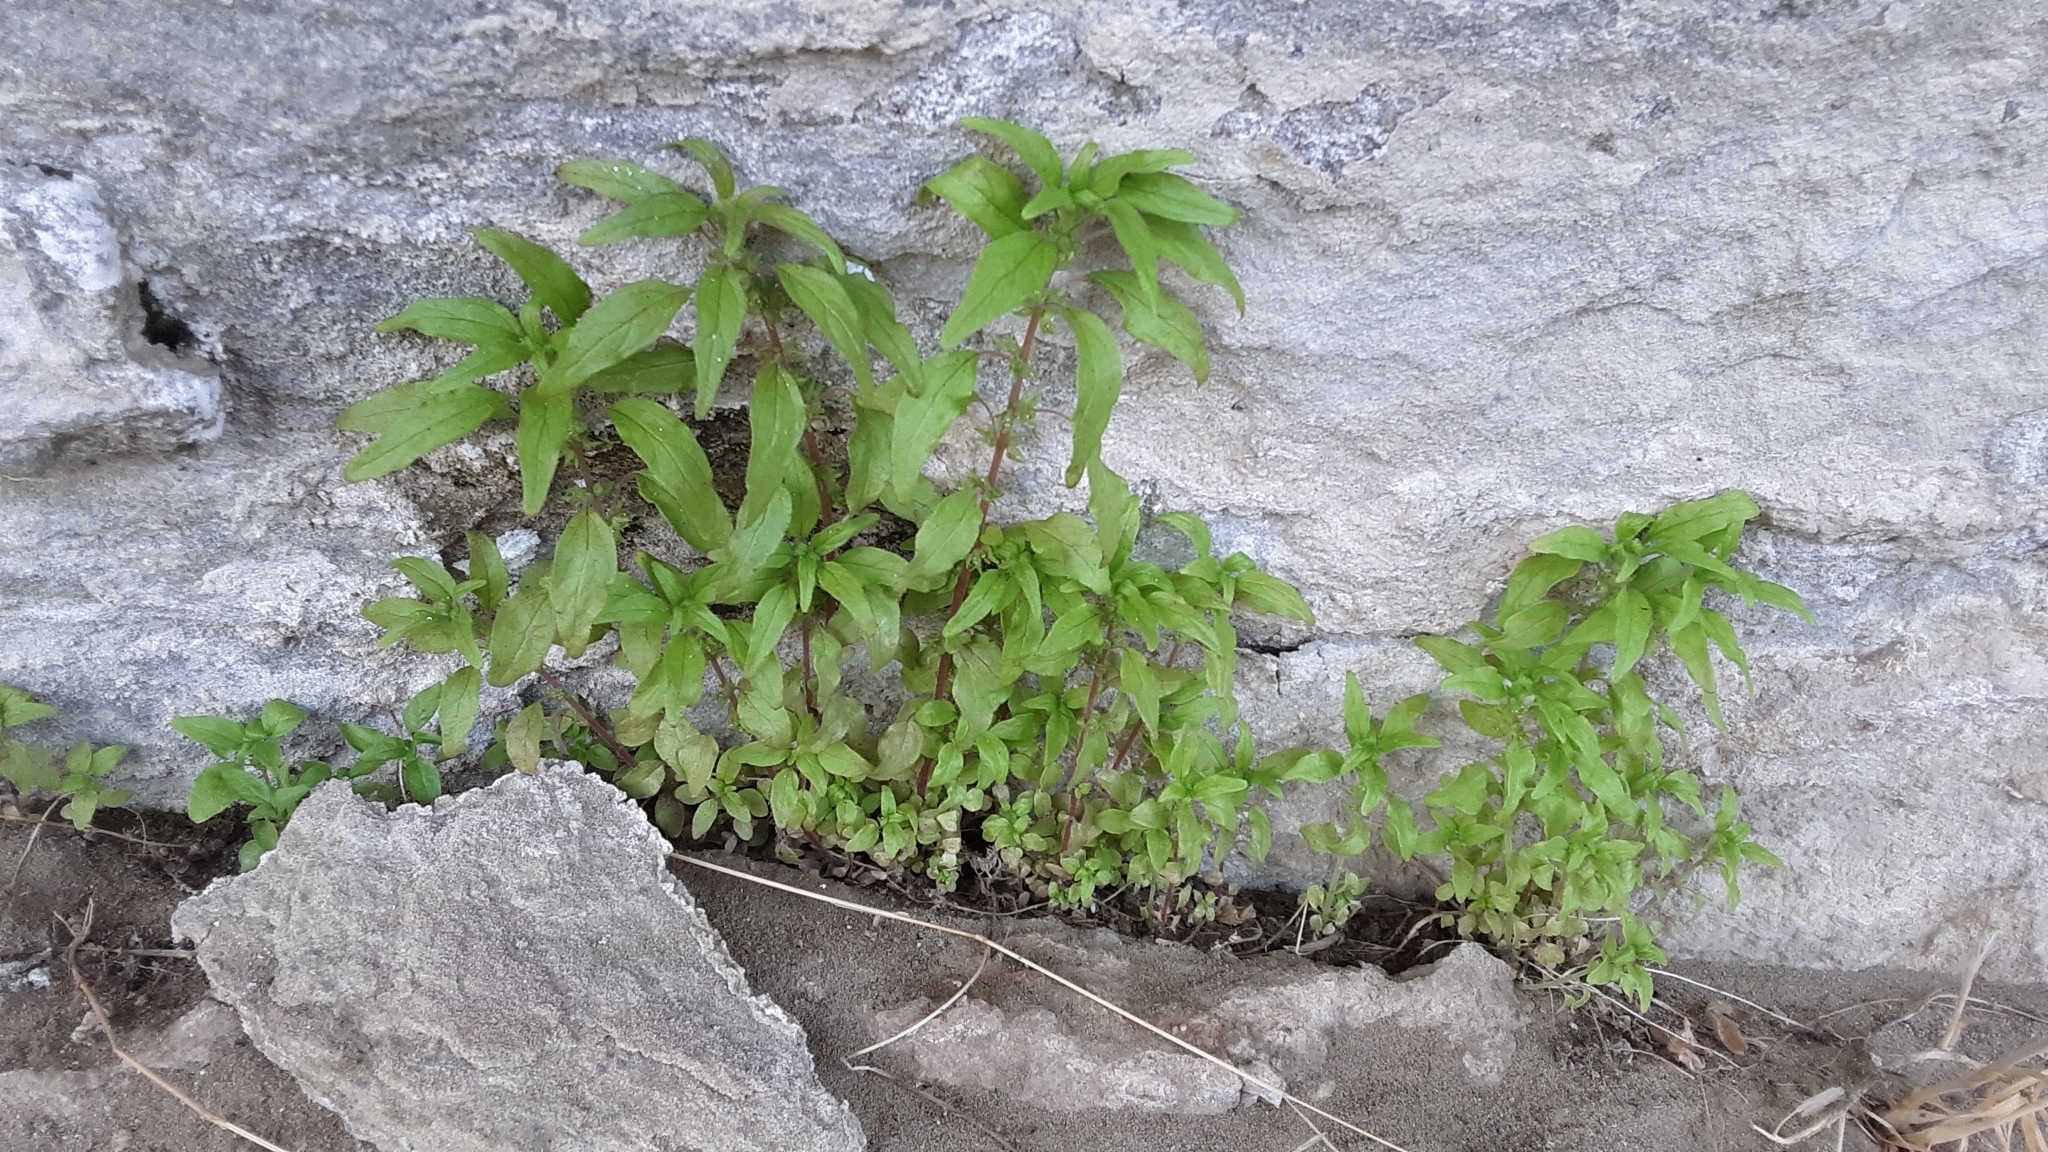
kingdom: Plantae
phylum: Tracheophyta
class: Magnoliopsida
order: Rosales
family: Urticaceae
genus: Parietaria
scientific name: Parietaria pensylvanica
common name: Pennsylvania pellitory
